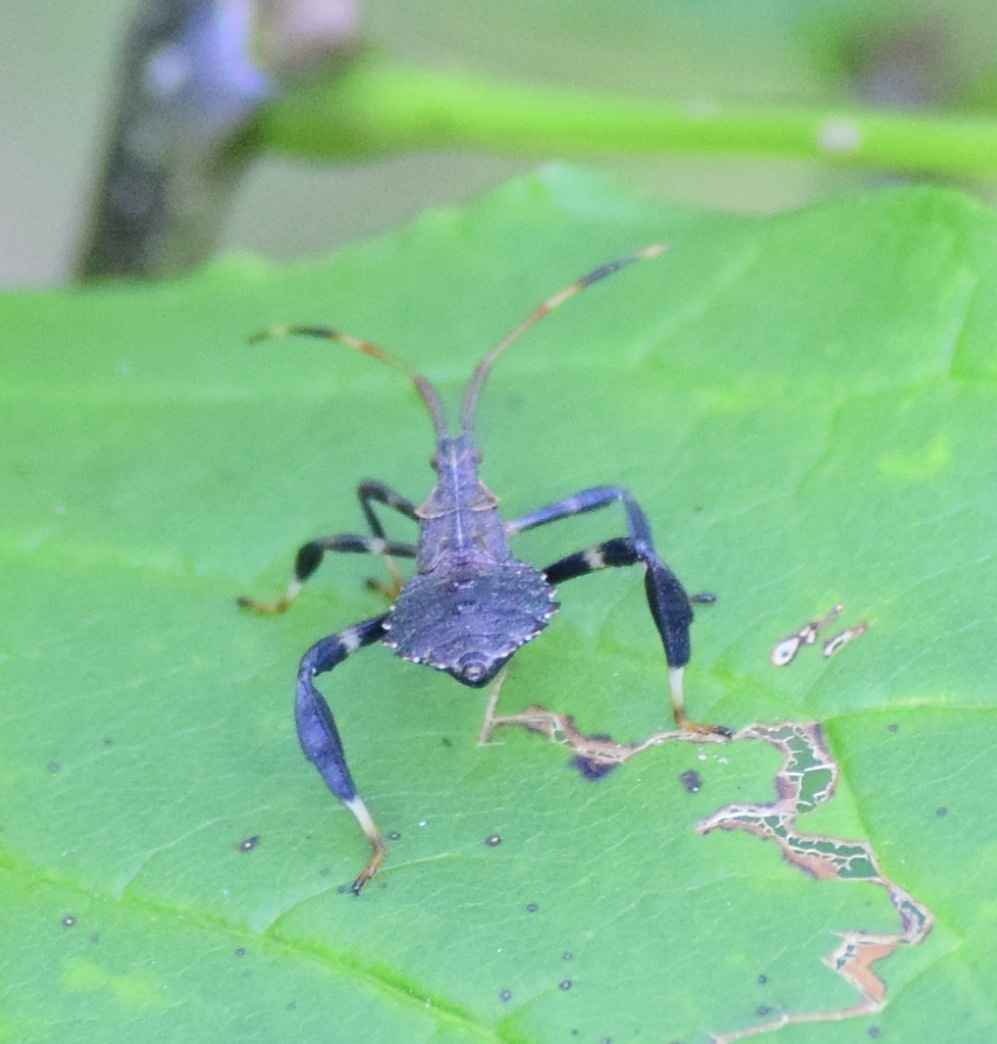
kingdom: Animalia
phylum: Arthropoda
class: Insecta
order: Hemiptera
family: Coreidae
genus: Acanthocephala
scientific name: Acanthocephala terminalis
